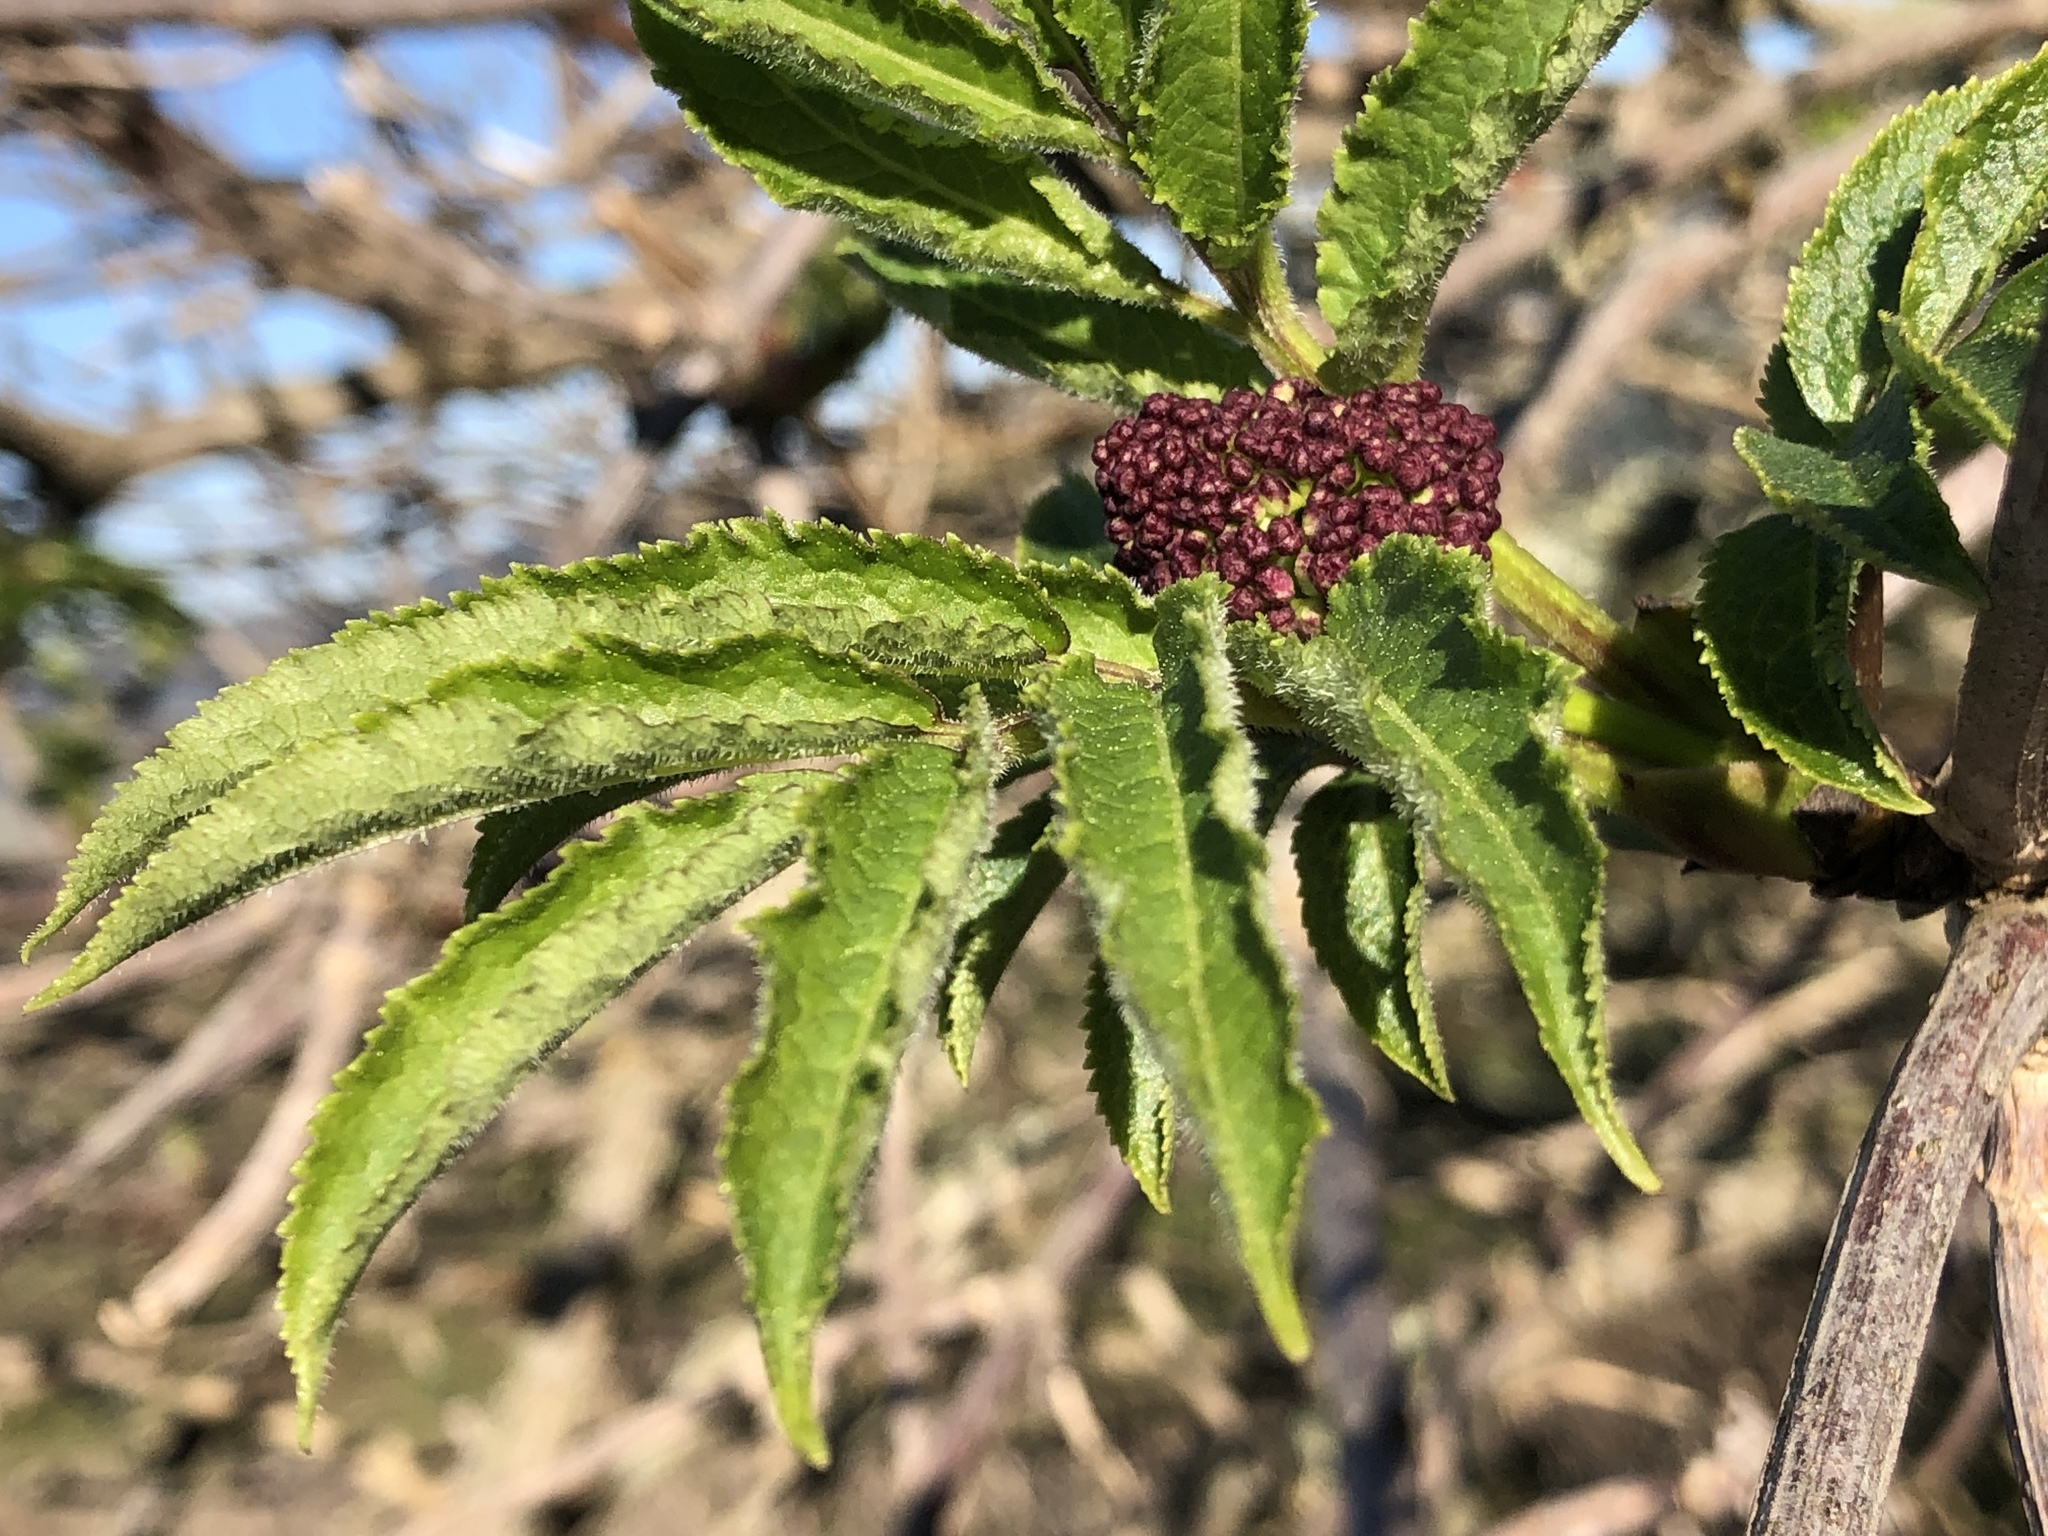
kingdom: Plantae
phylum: Tracheophyta
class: Magnoliopsida
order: Dipsacales
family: Viburnaceae
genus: Sambucus
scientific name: Sambucus racemosa
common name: Red-berried elder
